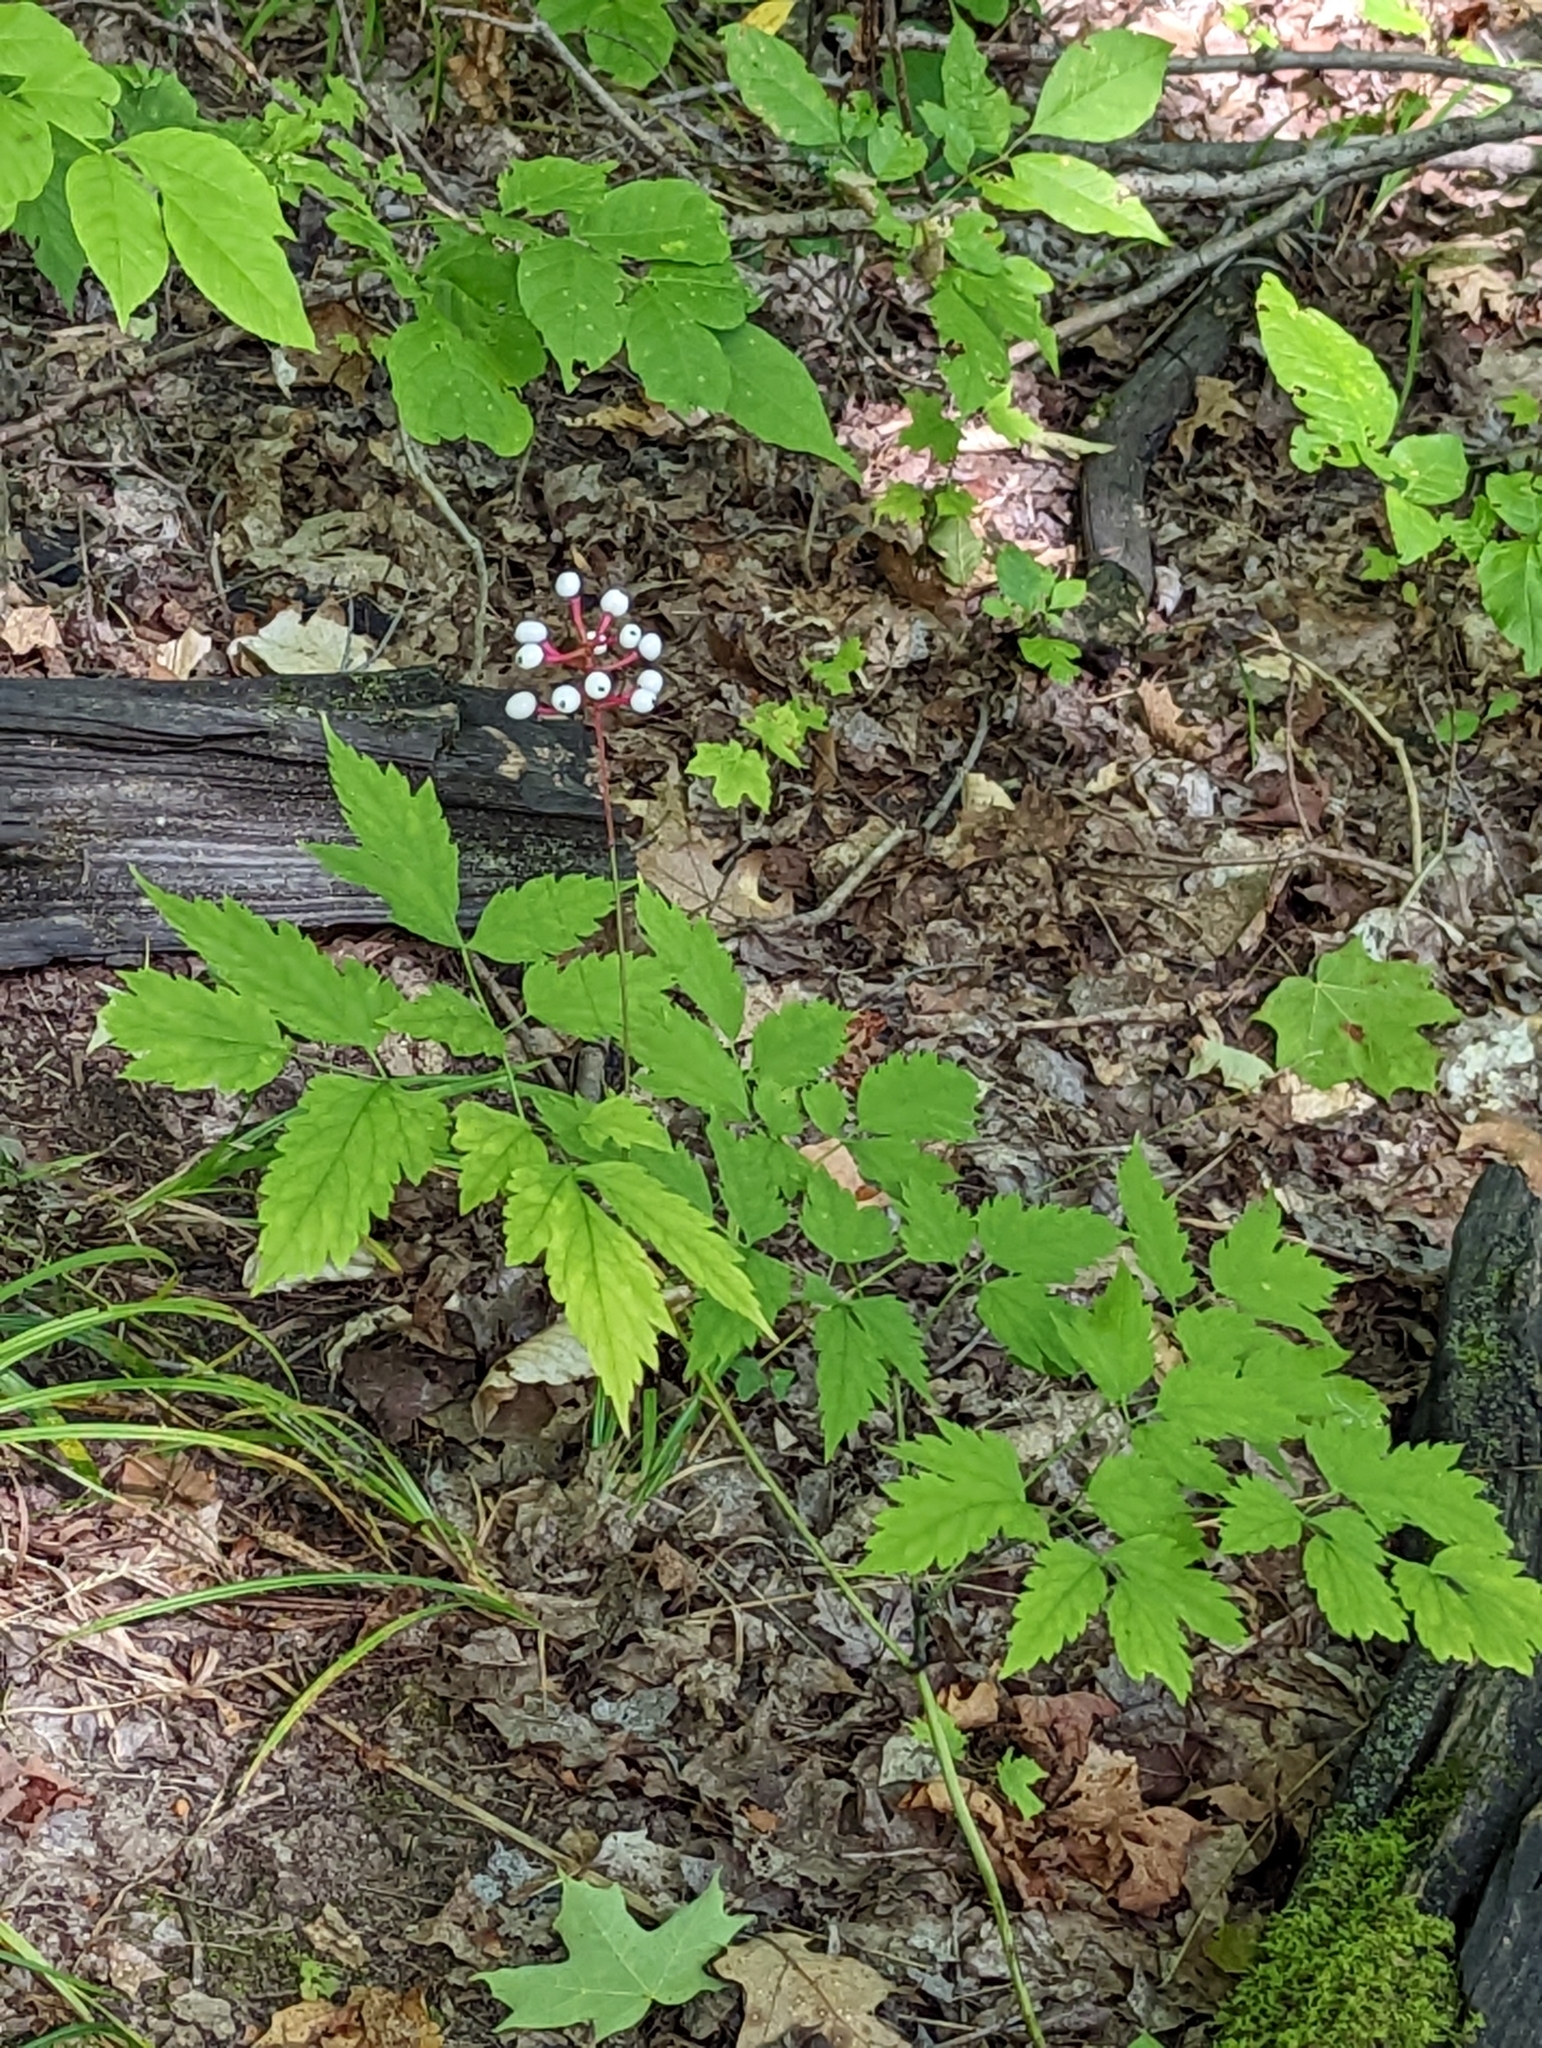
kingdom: Plantae
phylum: Tracheophyta
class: Magnoliopsida
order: Ranunculales
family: Ranunculaceae
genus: Actaea
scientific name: Actaea pachypoda
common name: Doll's-eyes
